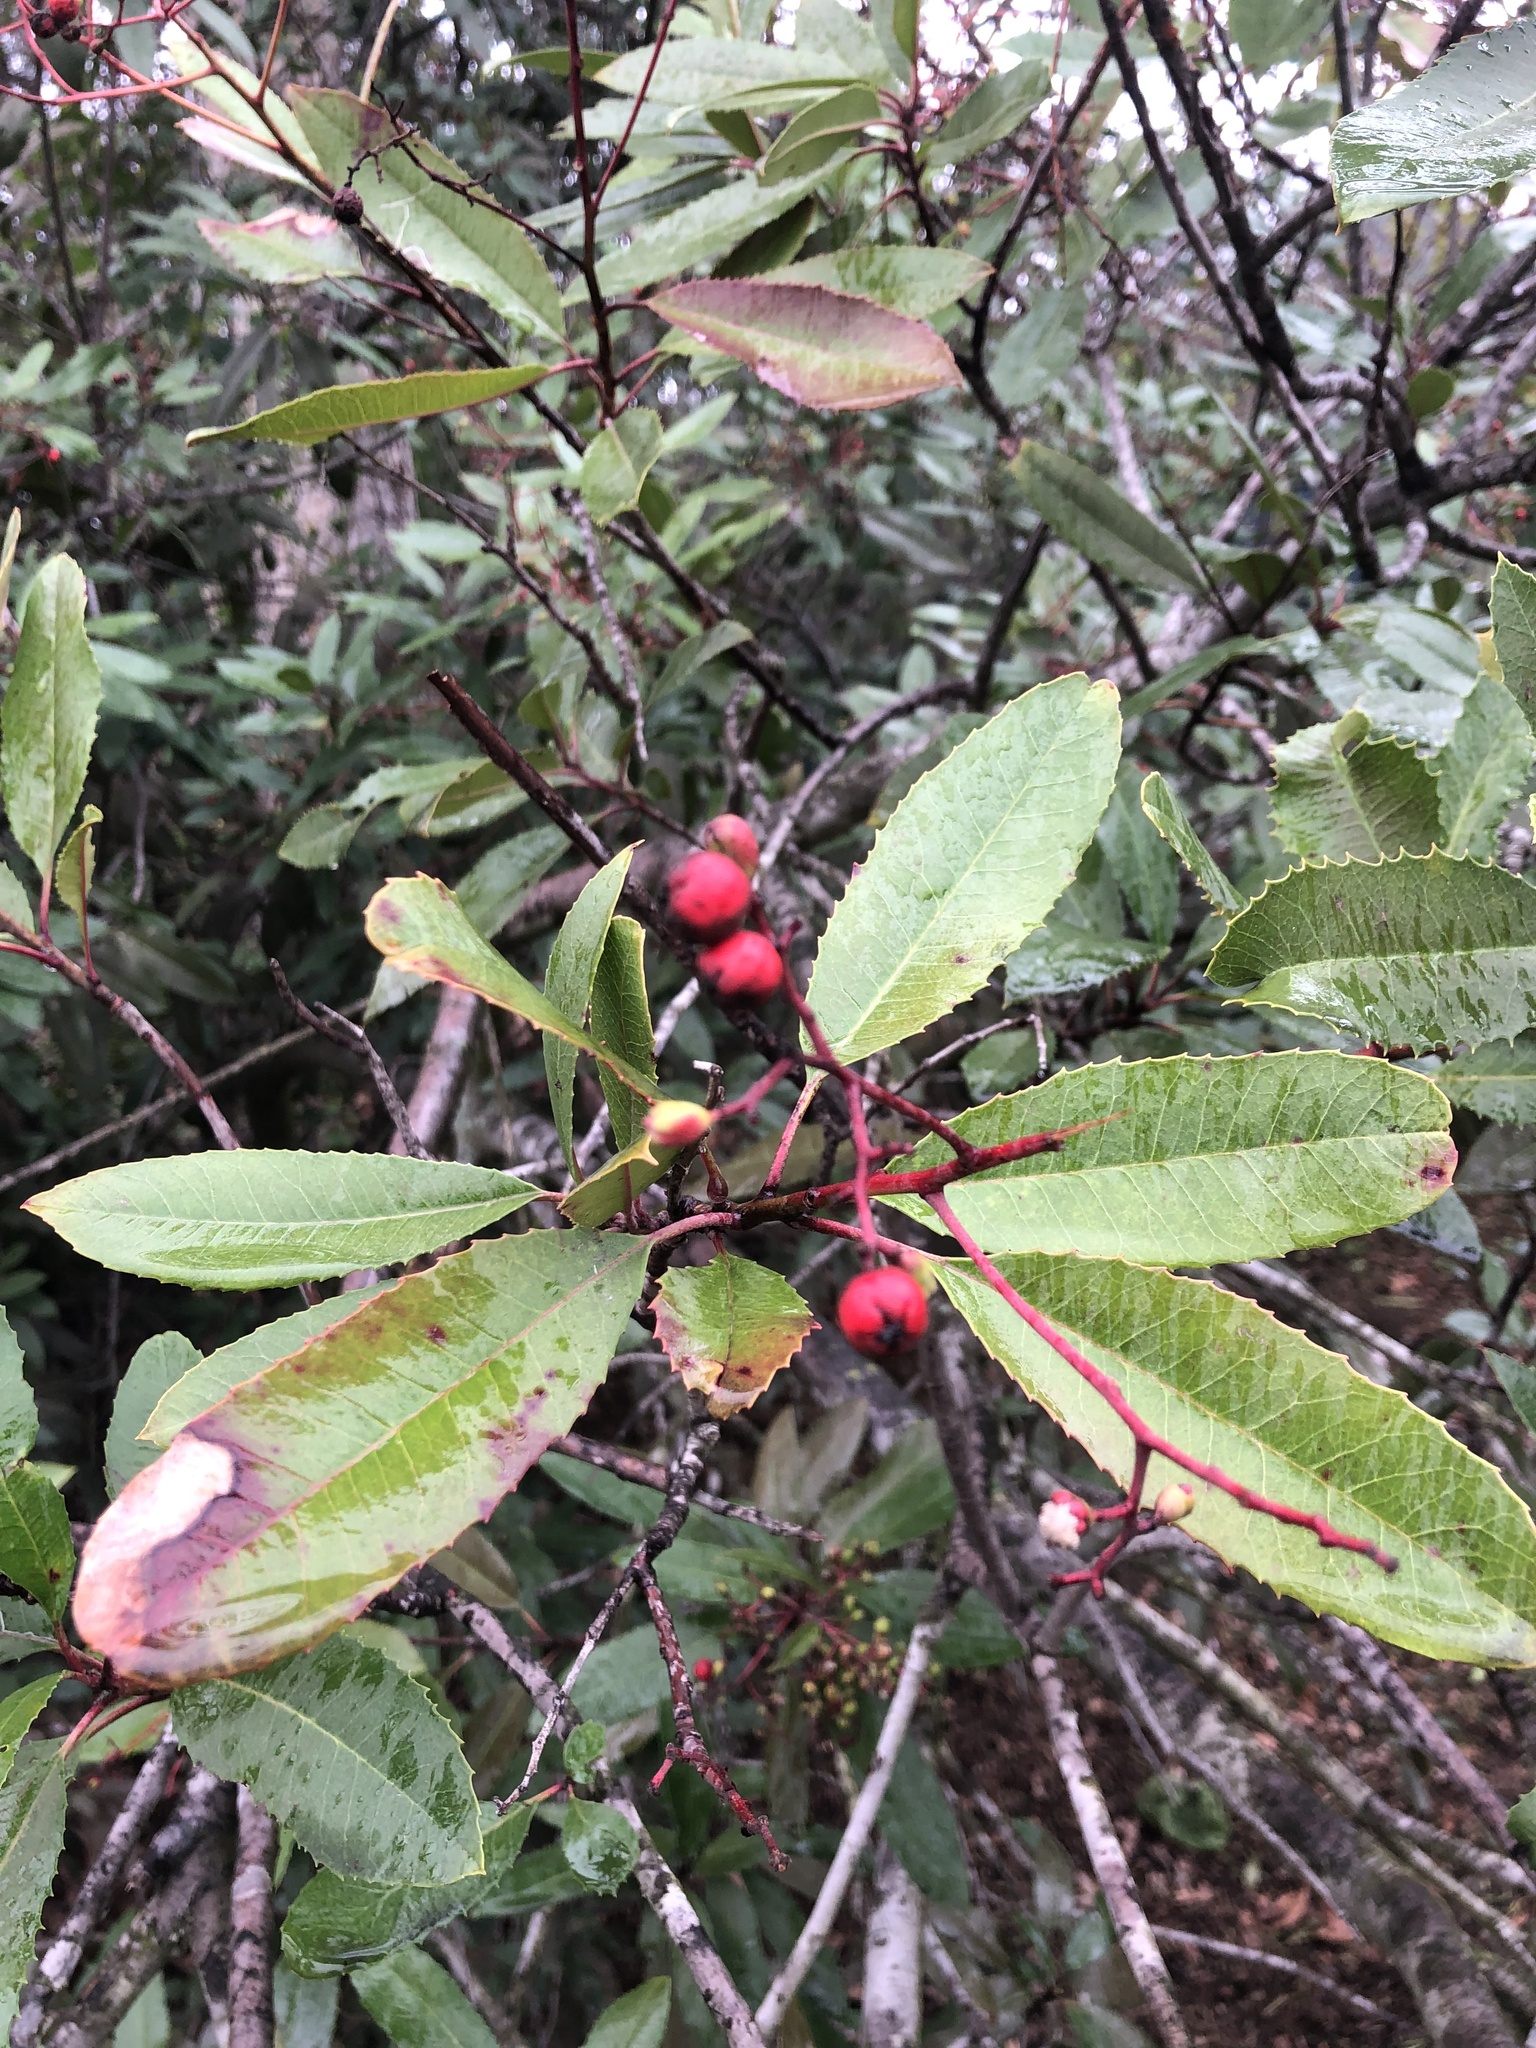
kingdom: Plantae
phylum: Tracheophyta
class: Magnoliopsida
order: Rosales
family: Rosaceae
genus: Heteromeles
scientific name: Heteromeles arbutifolia
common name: California-holly
